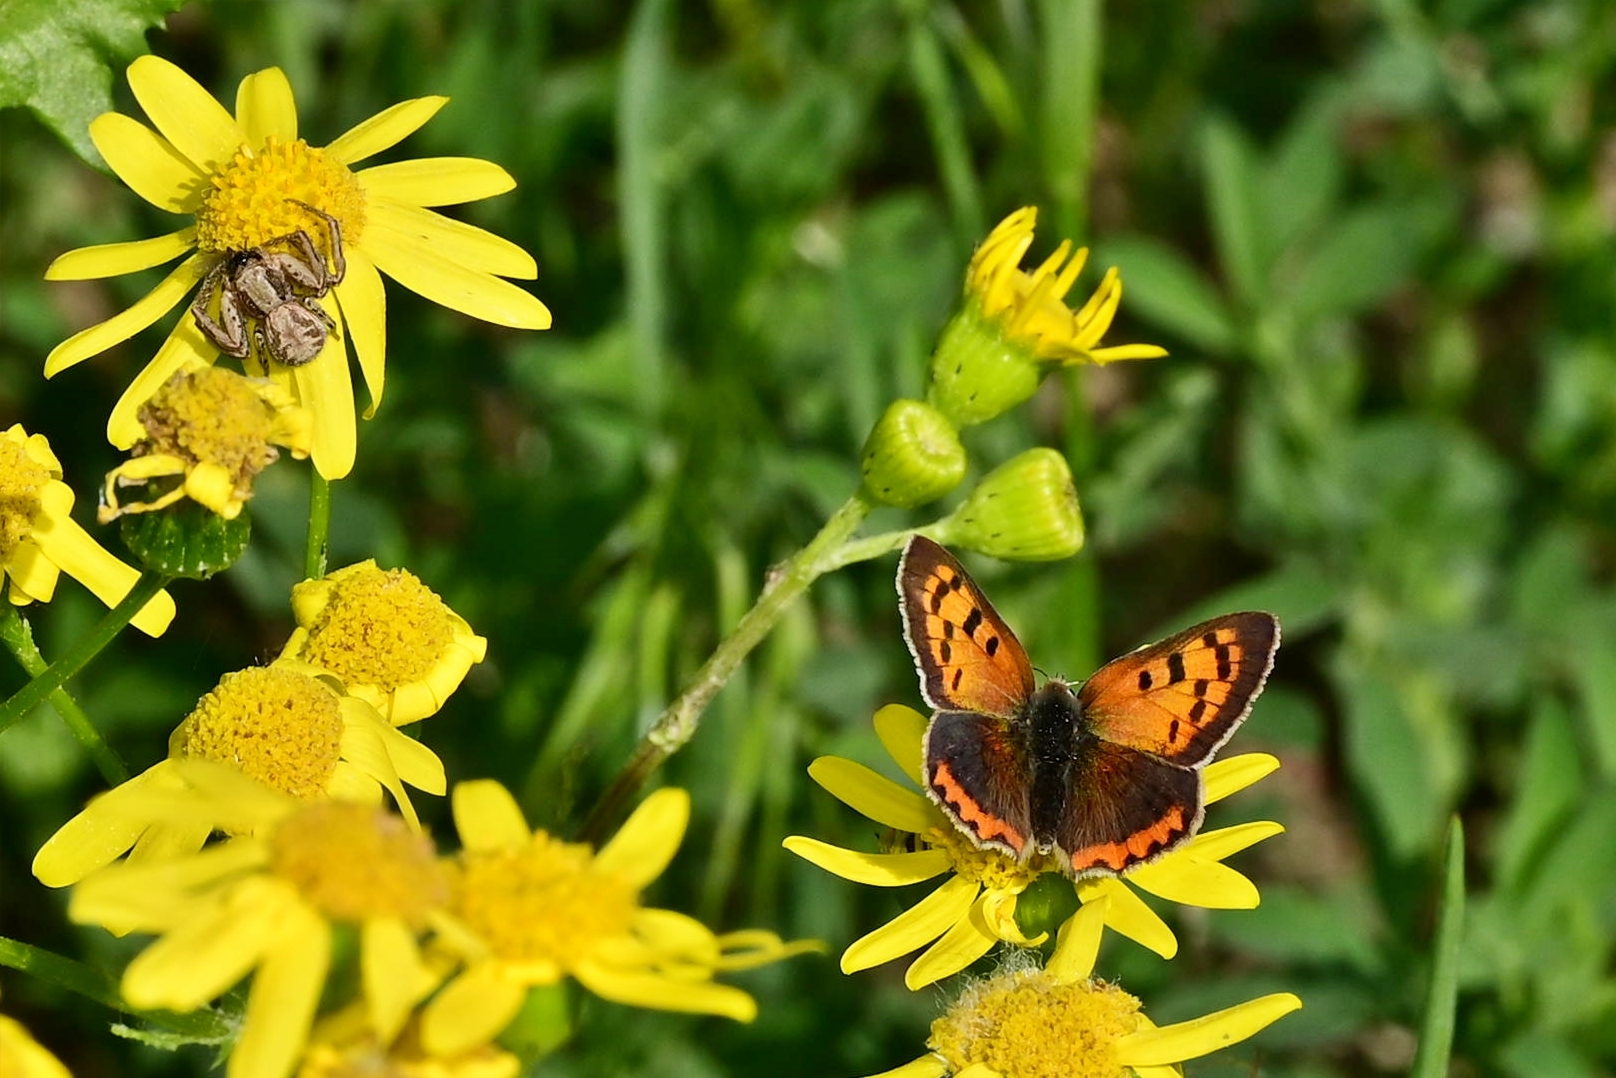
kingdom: Animalia
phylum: Arthropoda
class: Insecta
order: Lepidoptera
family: Lycaenidae
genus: Lycaena
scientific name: Lycaena phlaeas
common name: Small copper
